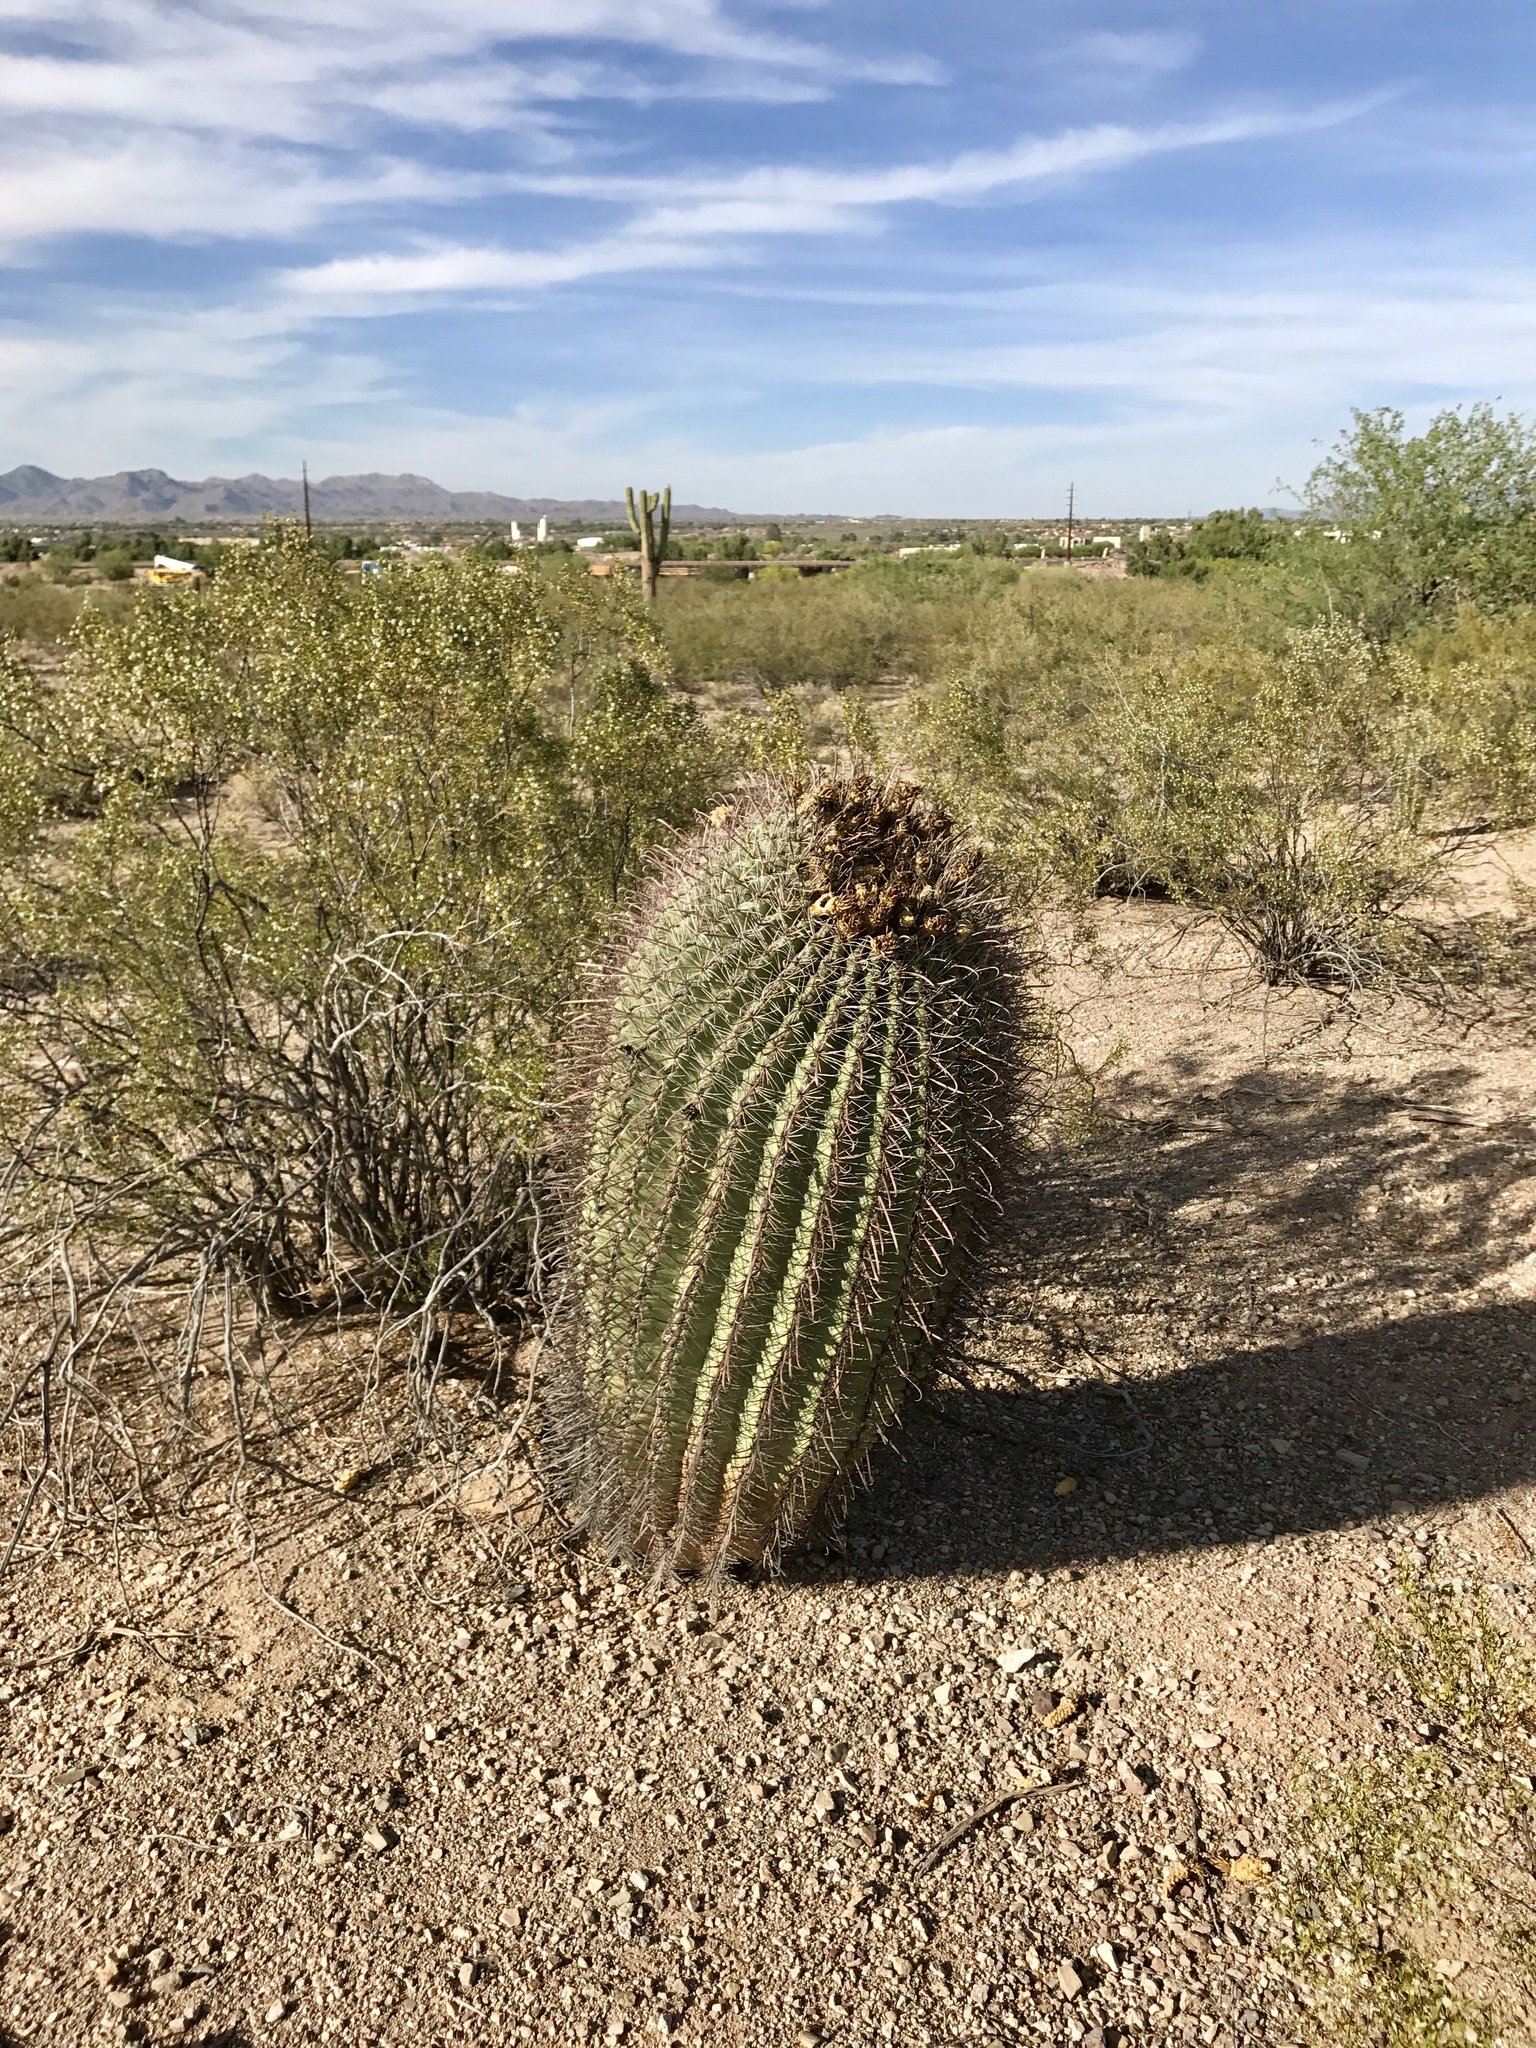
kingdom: Plantae
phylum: Tracheophyta
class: Magnoliopsida
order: Caryophyllales
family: Cactaceae
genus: Ferocactus
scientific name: Ferocactus wislizeni
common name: Candy barrel cactus
